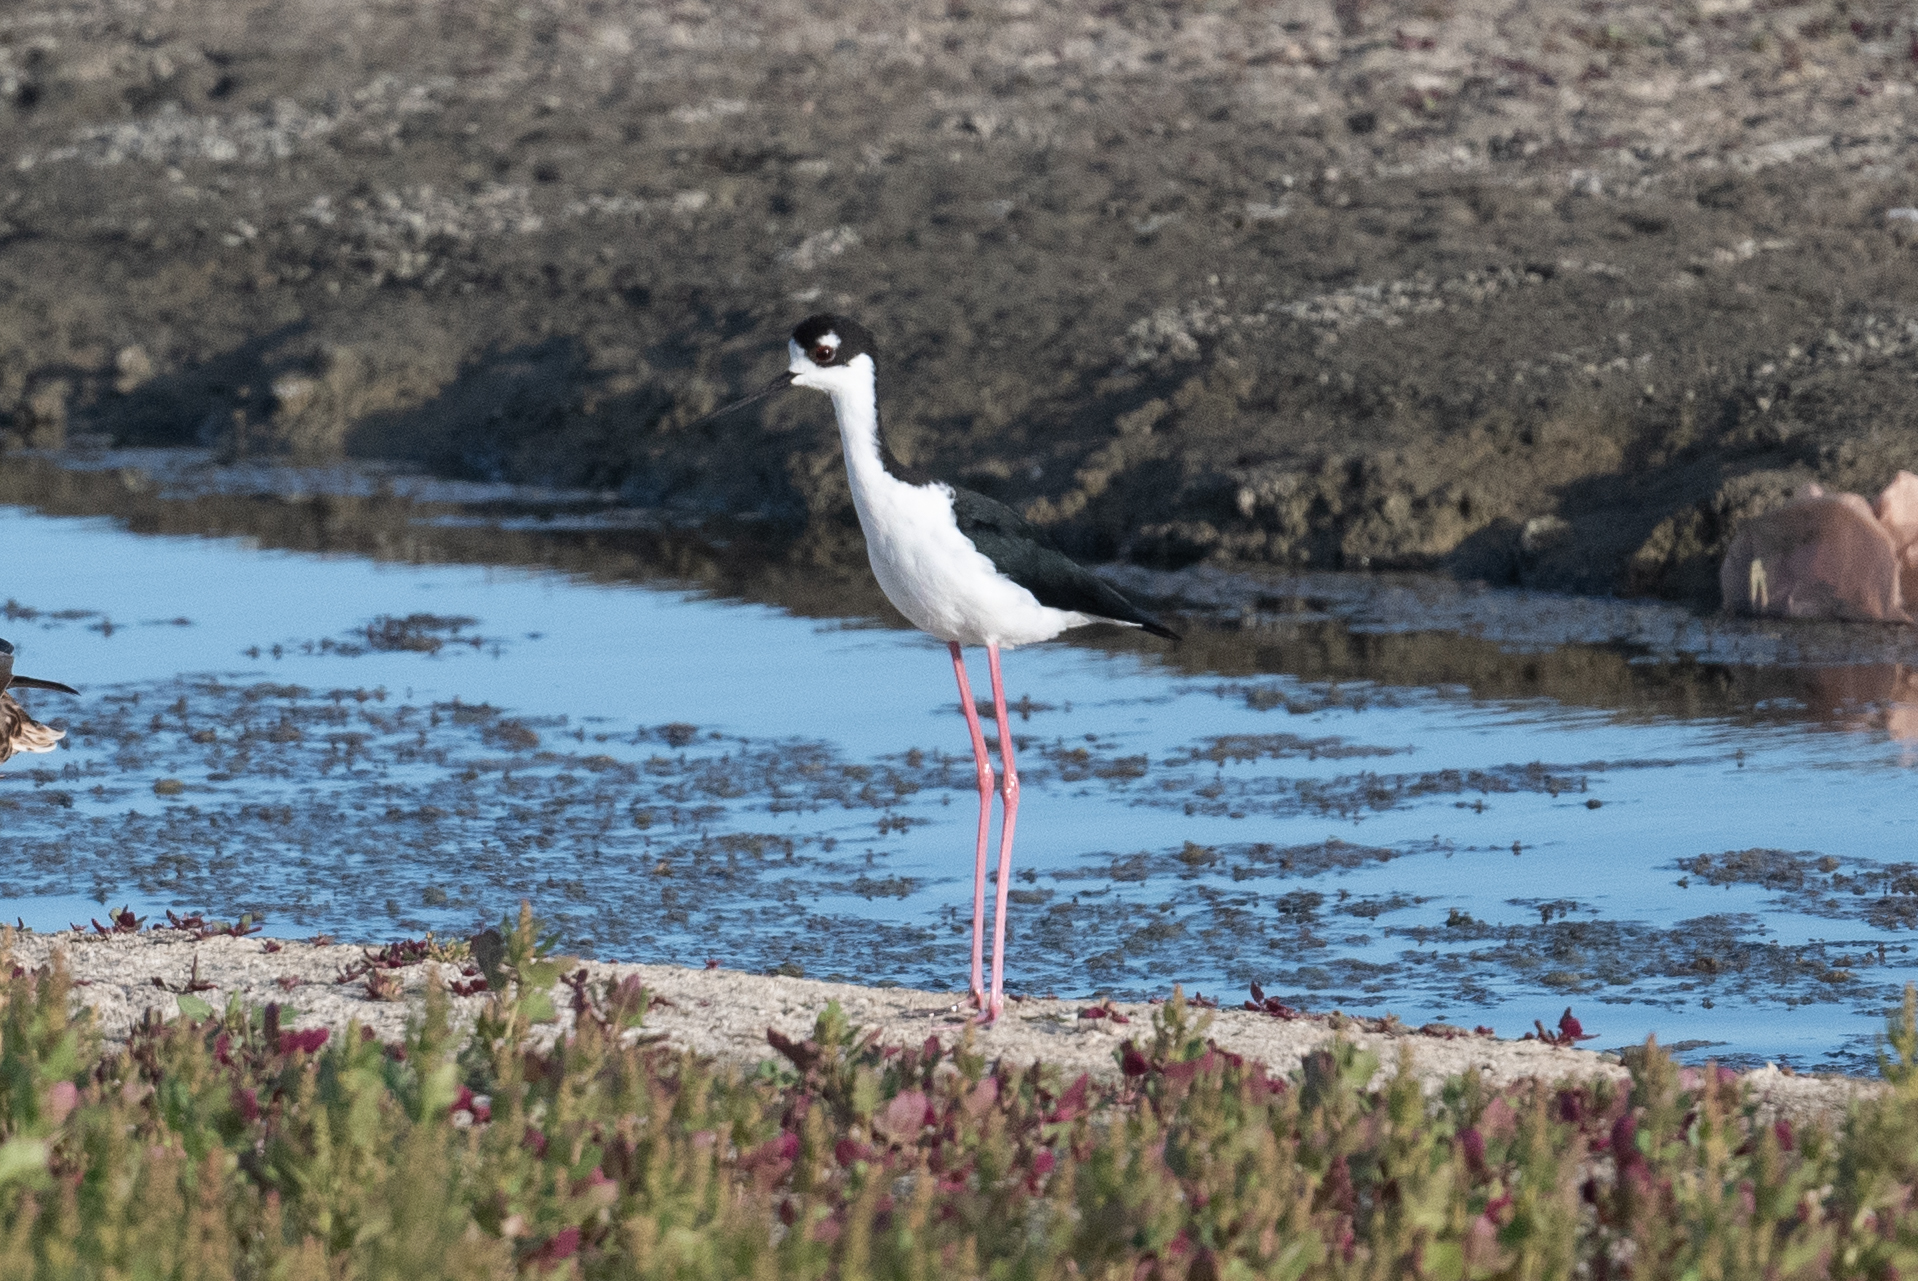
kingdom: Animalia
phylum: Chordata
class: Aves
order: Charadriiformes
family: Recurvirostridae
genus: Himantopus
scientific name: Himantopus mexicanus
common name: Black-necked stilt
